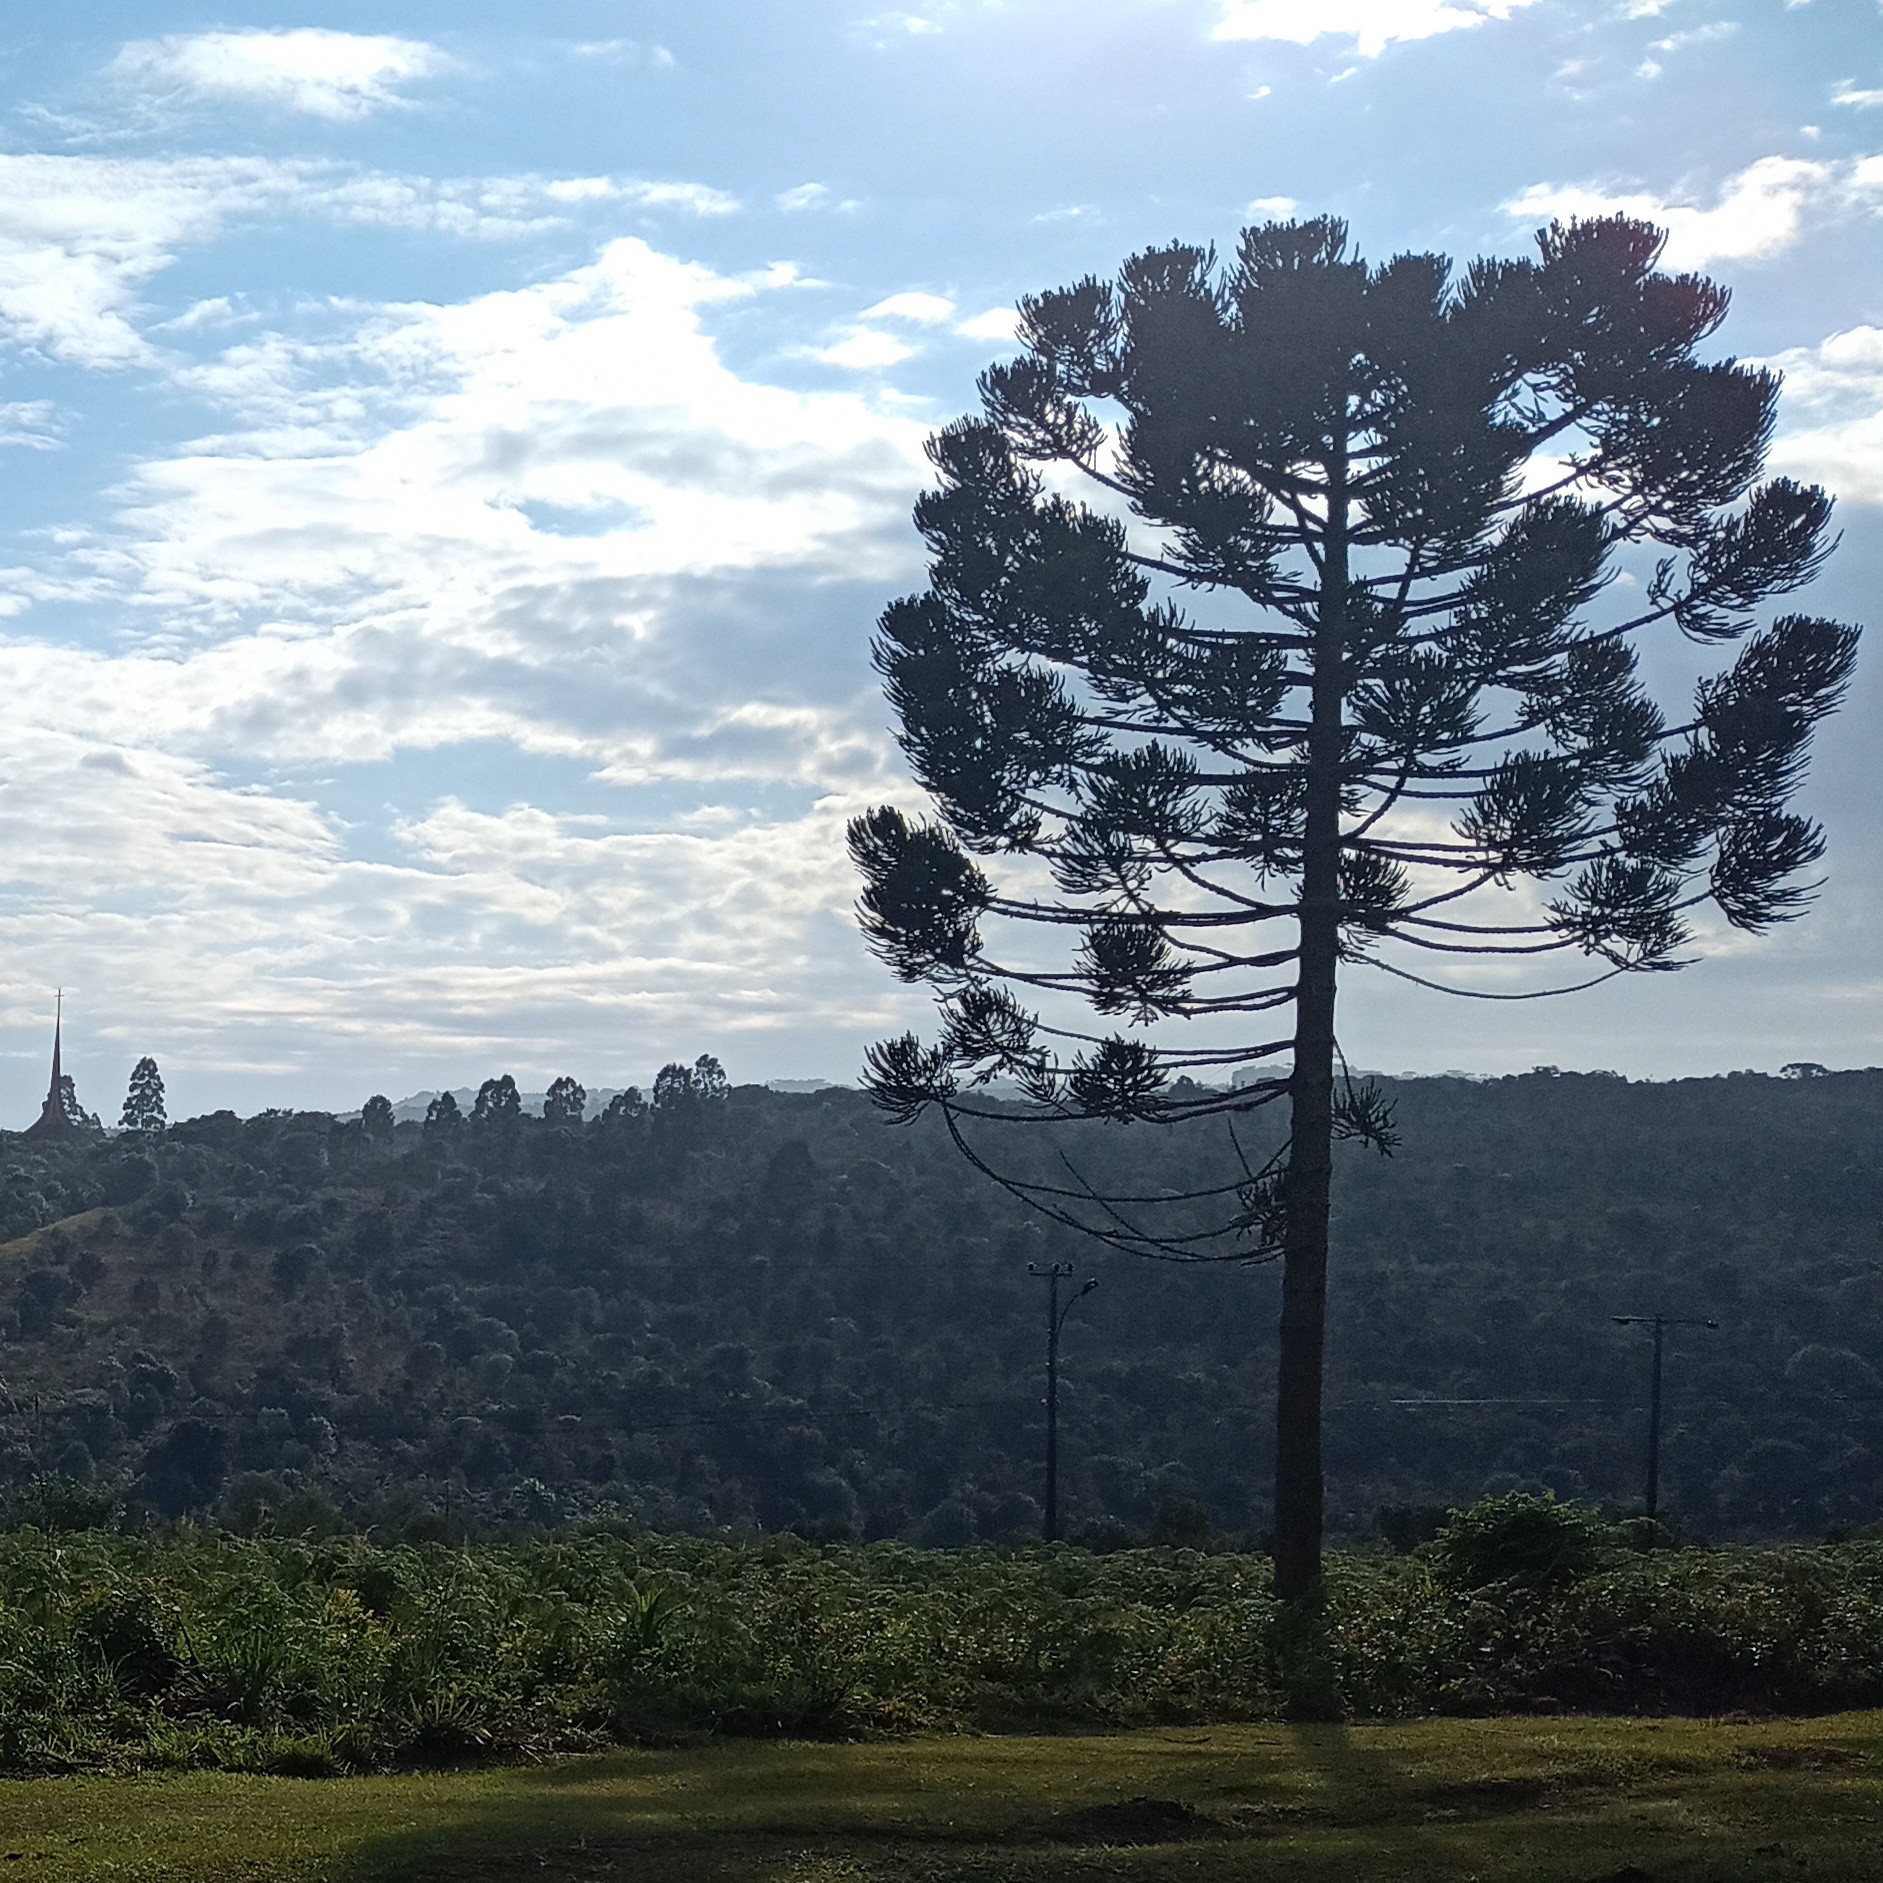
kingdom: Plantae
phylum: Tracheophyta
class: Pinopsida
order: Pinales
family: Araucariaceae
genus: Araucaria
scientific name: Araucaria angustifolia
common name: Candelabra tree
